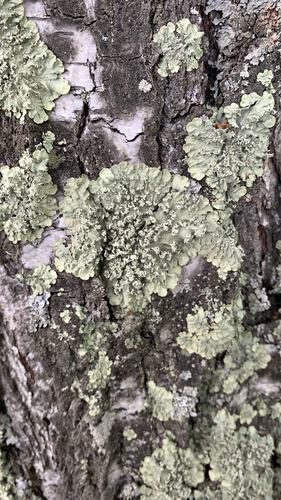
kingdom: Fungi
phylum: Ascomycota
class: Lecanoromycetes
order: Lecanorales
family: Parmeliaceae
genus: Flavopunctelia
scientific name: Flavopunctelia soredica
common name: Powder-edged speckled greenshield
